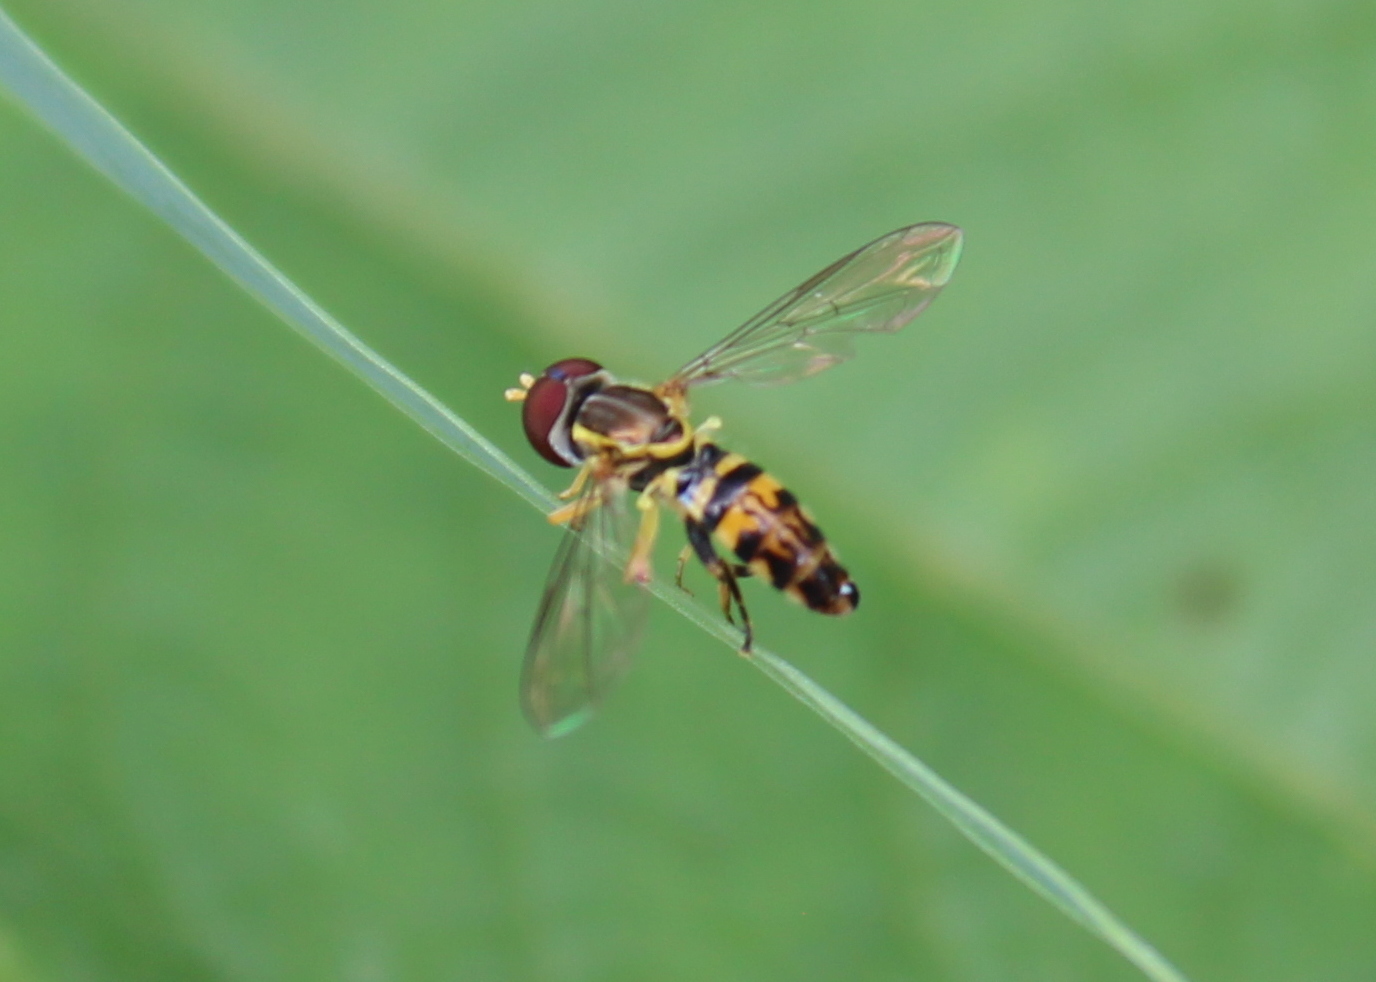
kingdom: Animalia
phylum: Arthropoda
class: Insecta
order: Diptera
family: Syrphidae
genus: Toxomerus
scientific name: Toxomerus geminatus
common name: Eastern calligrapher
